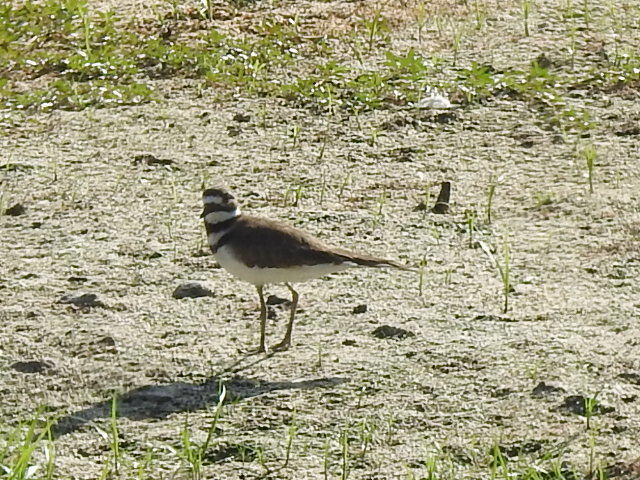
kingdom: Animalia
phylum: Chordata
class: Aves
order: Charadriiformes
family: Charadriidae
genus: Charadrius
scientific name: Charadrius vociferus
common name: Killdeer
